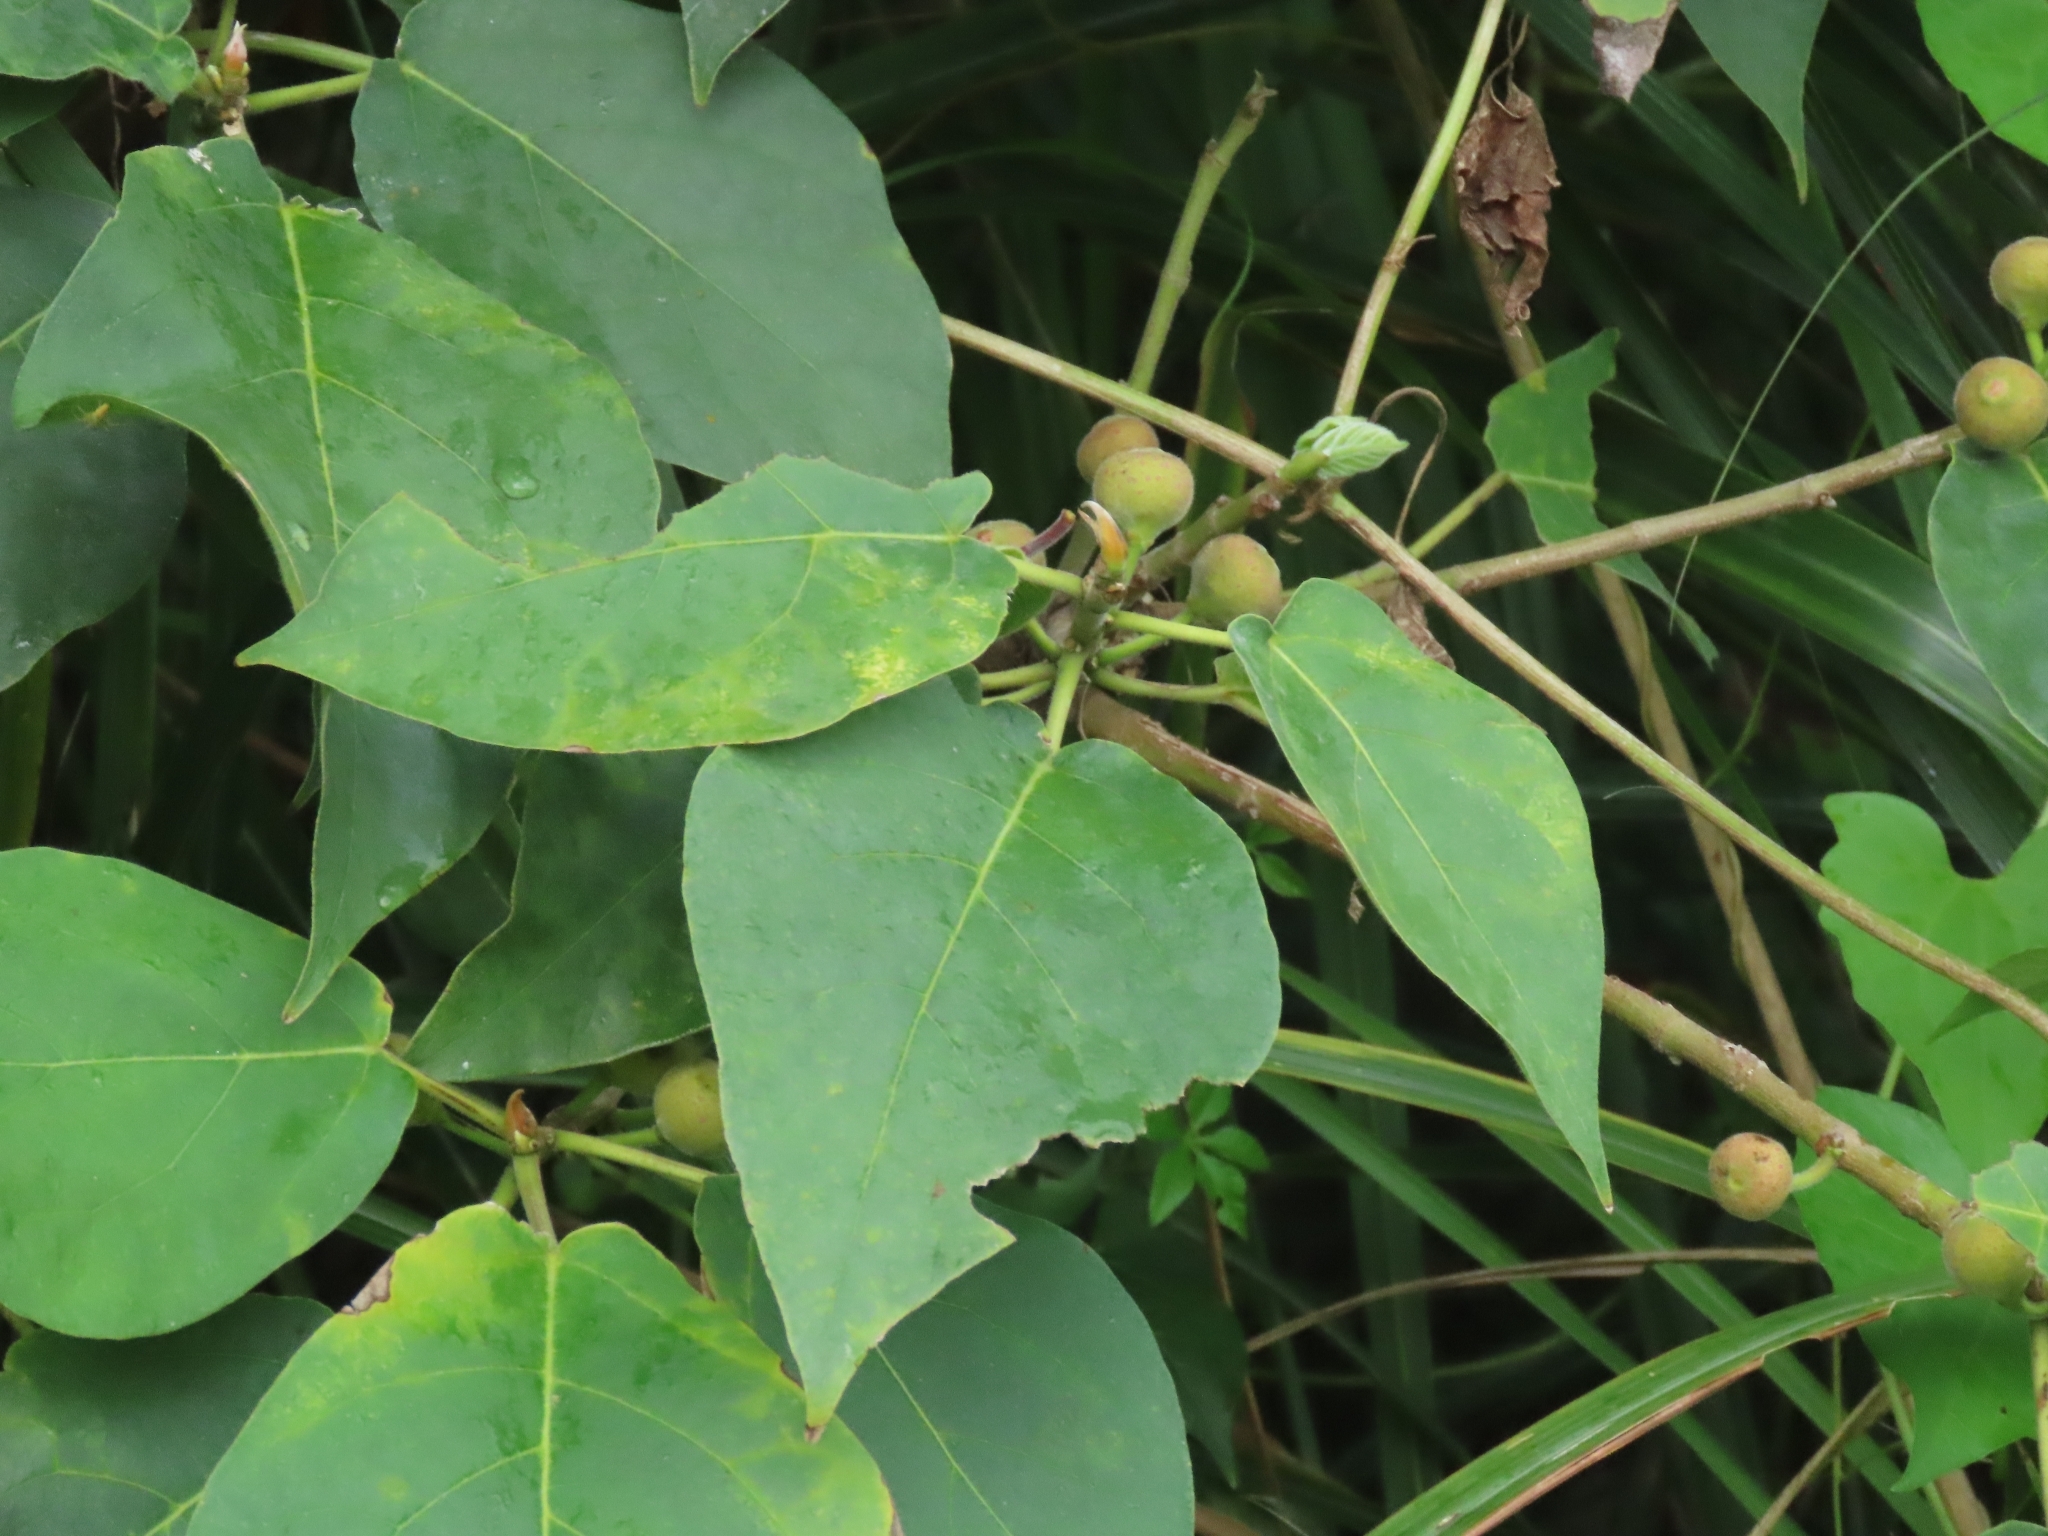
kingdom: Plantae
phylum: Tracheophyta
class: Magnoliopsida
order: Rosales
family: Moraceae
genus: Ficus
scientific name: Ficus erecta
